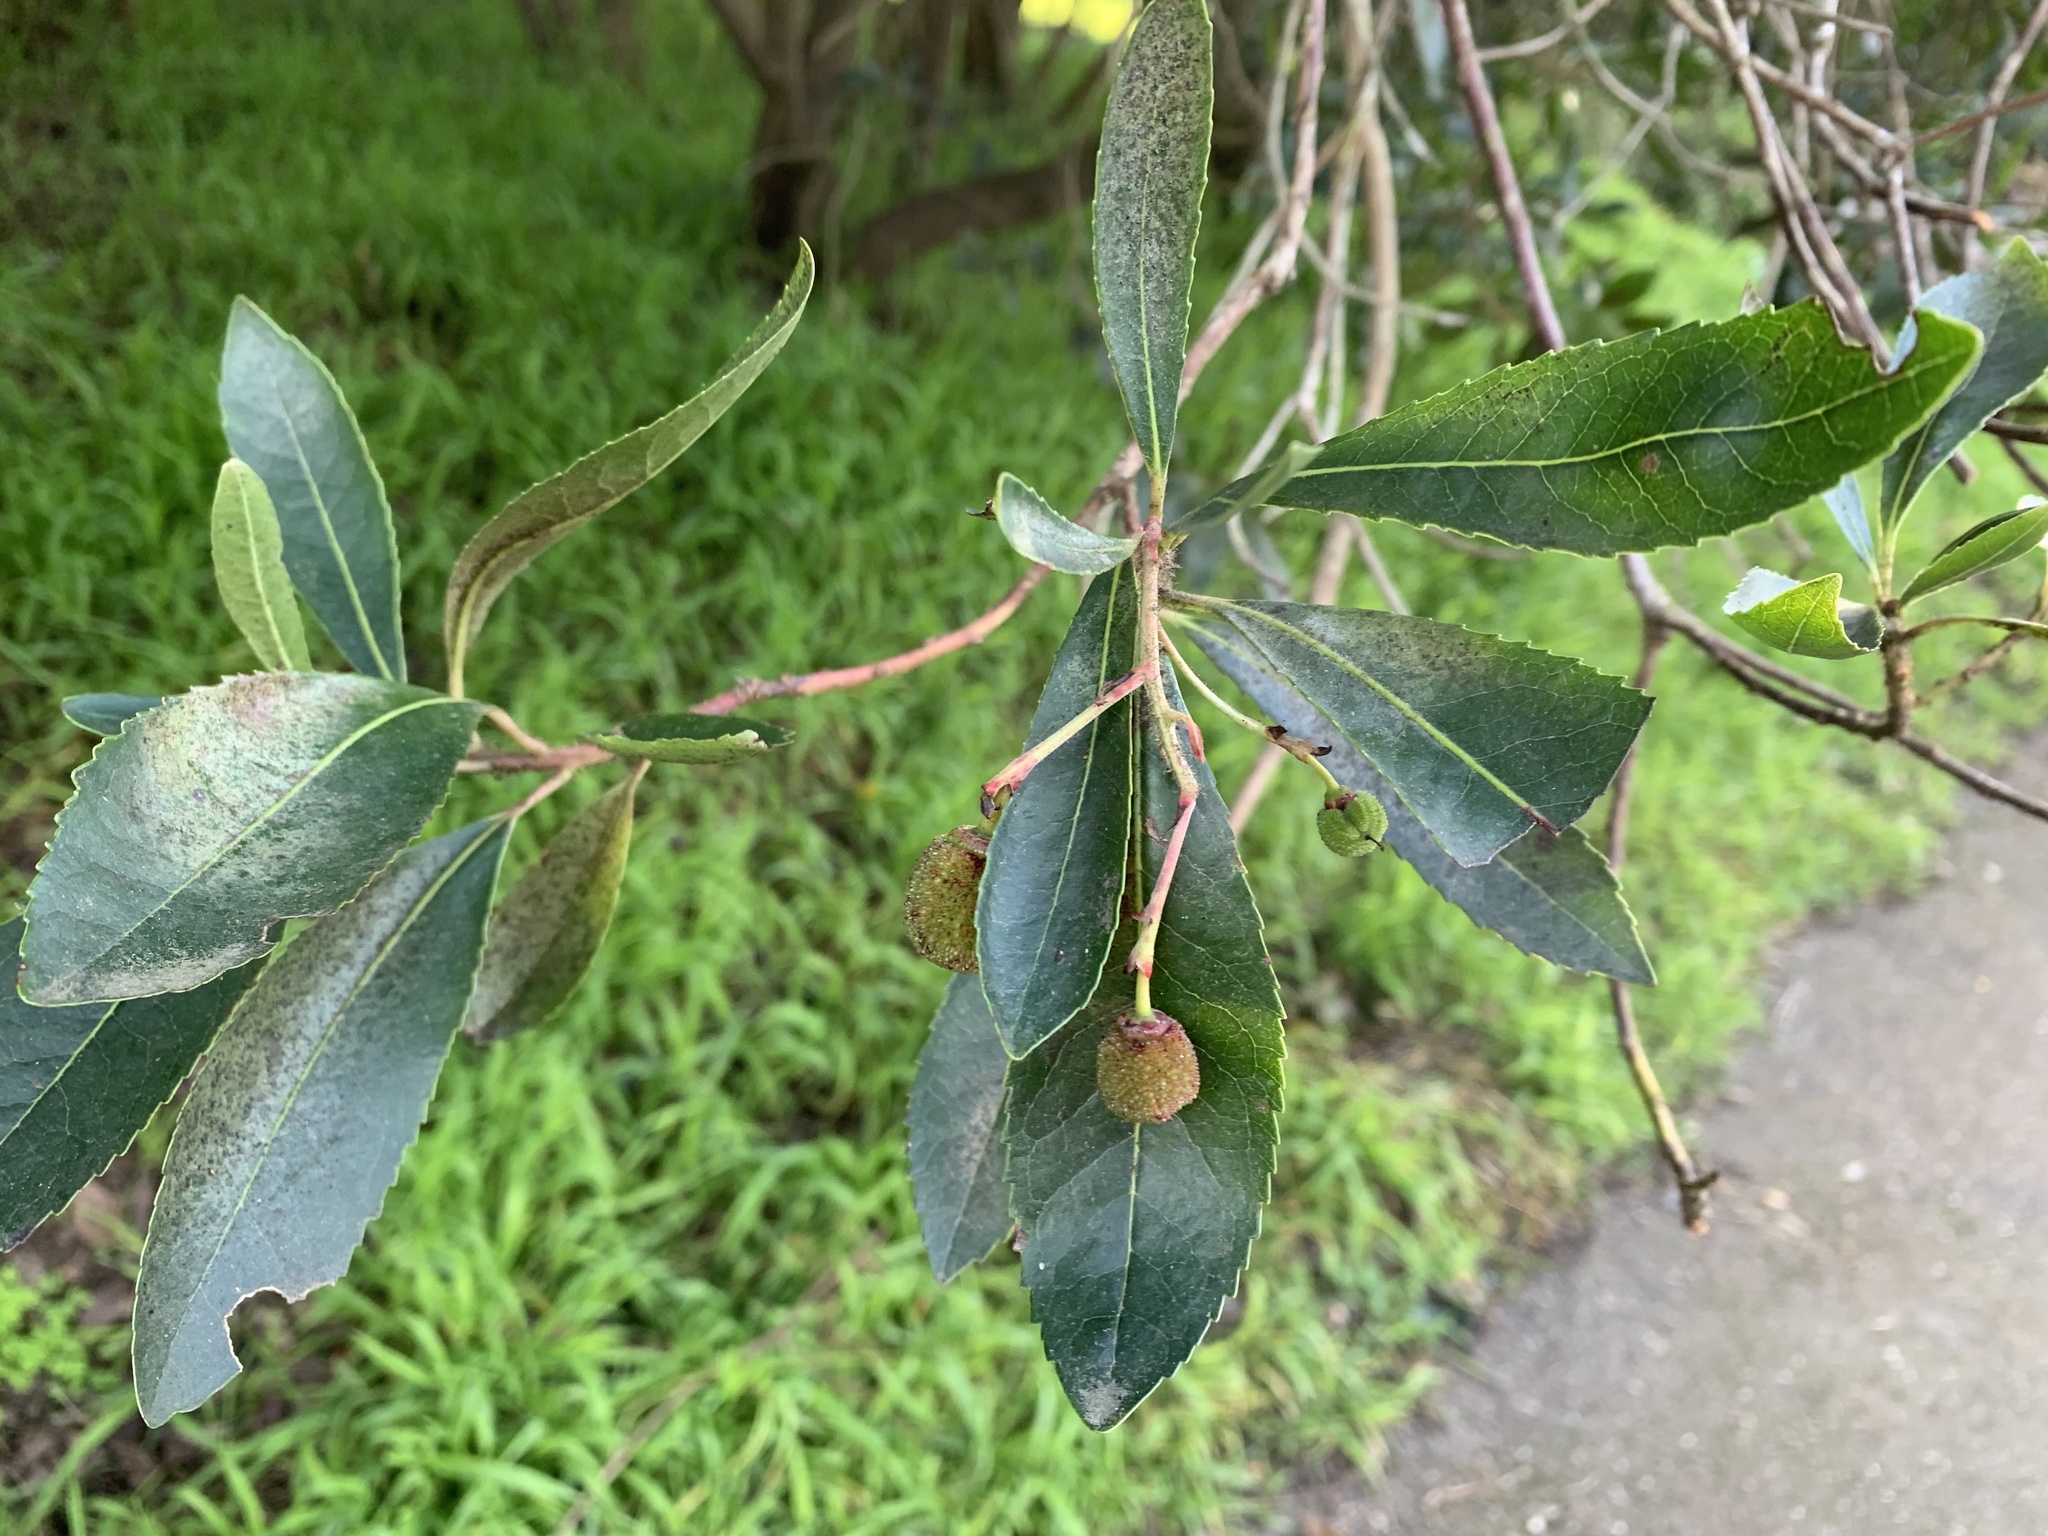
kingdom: Plantae
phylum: Tracheophyta
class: Magnoliopsida
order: Rosales
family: Rosaceae
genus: Heteromeles
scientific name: Heteromeles arbutifolia
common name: California-holly
